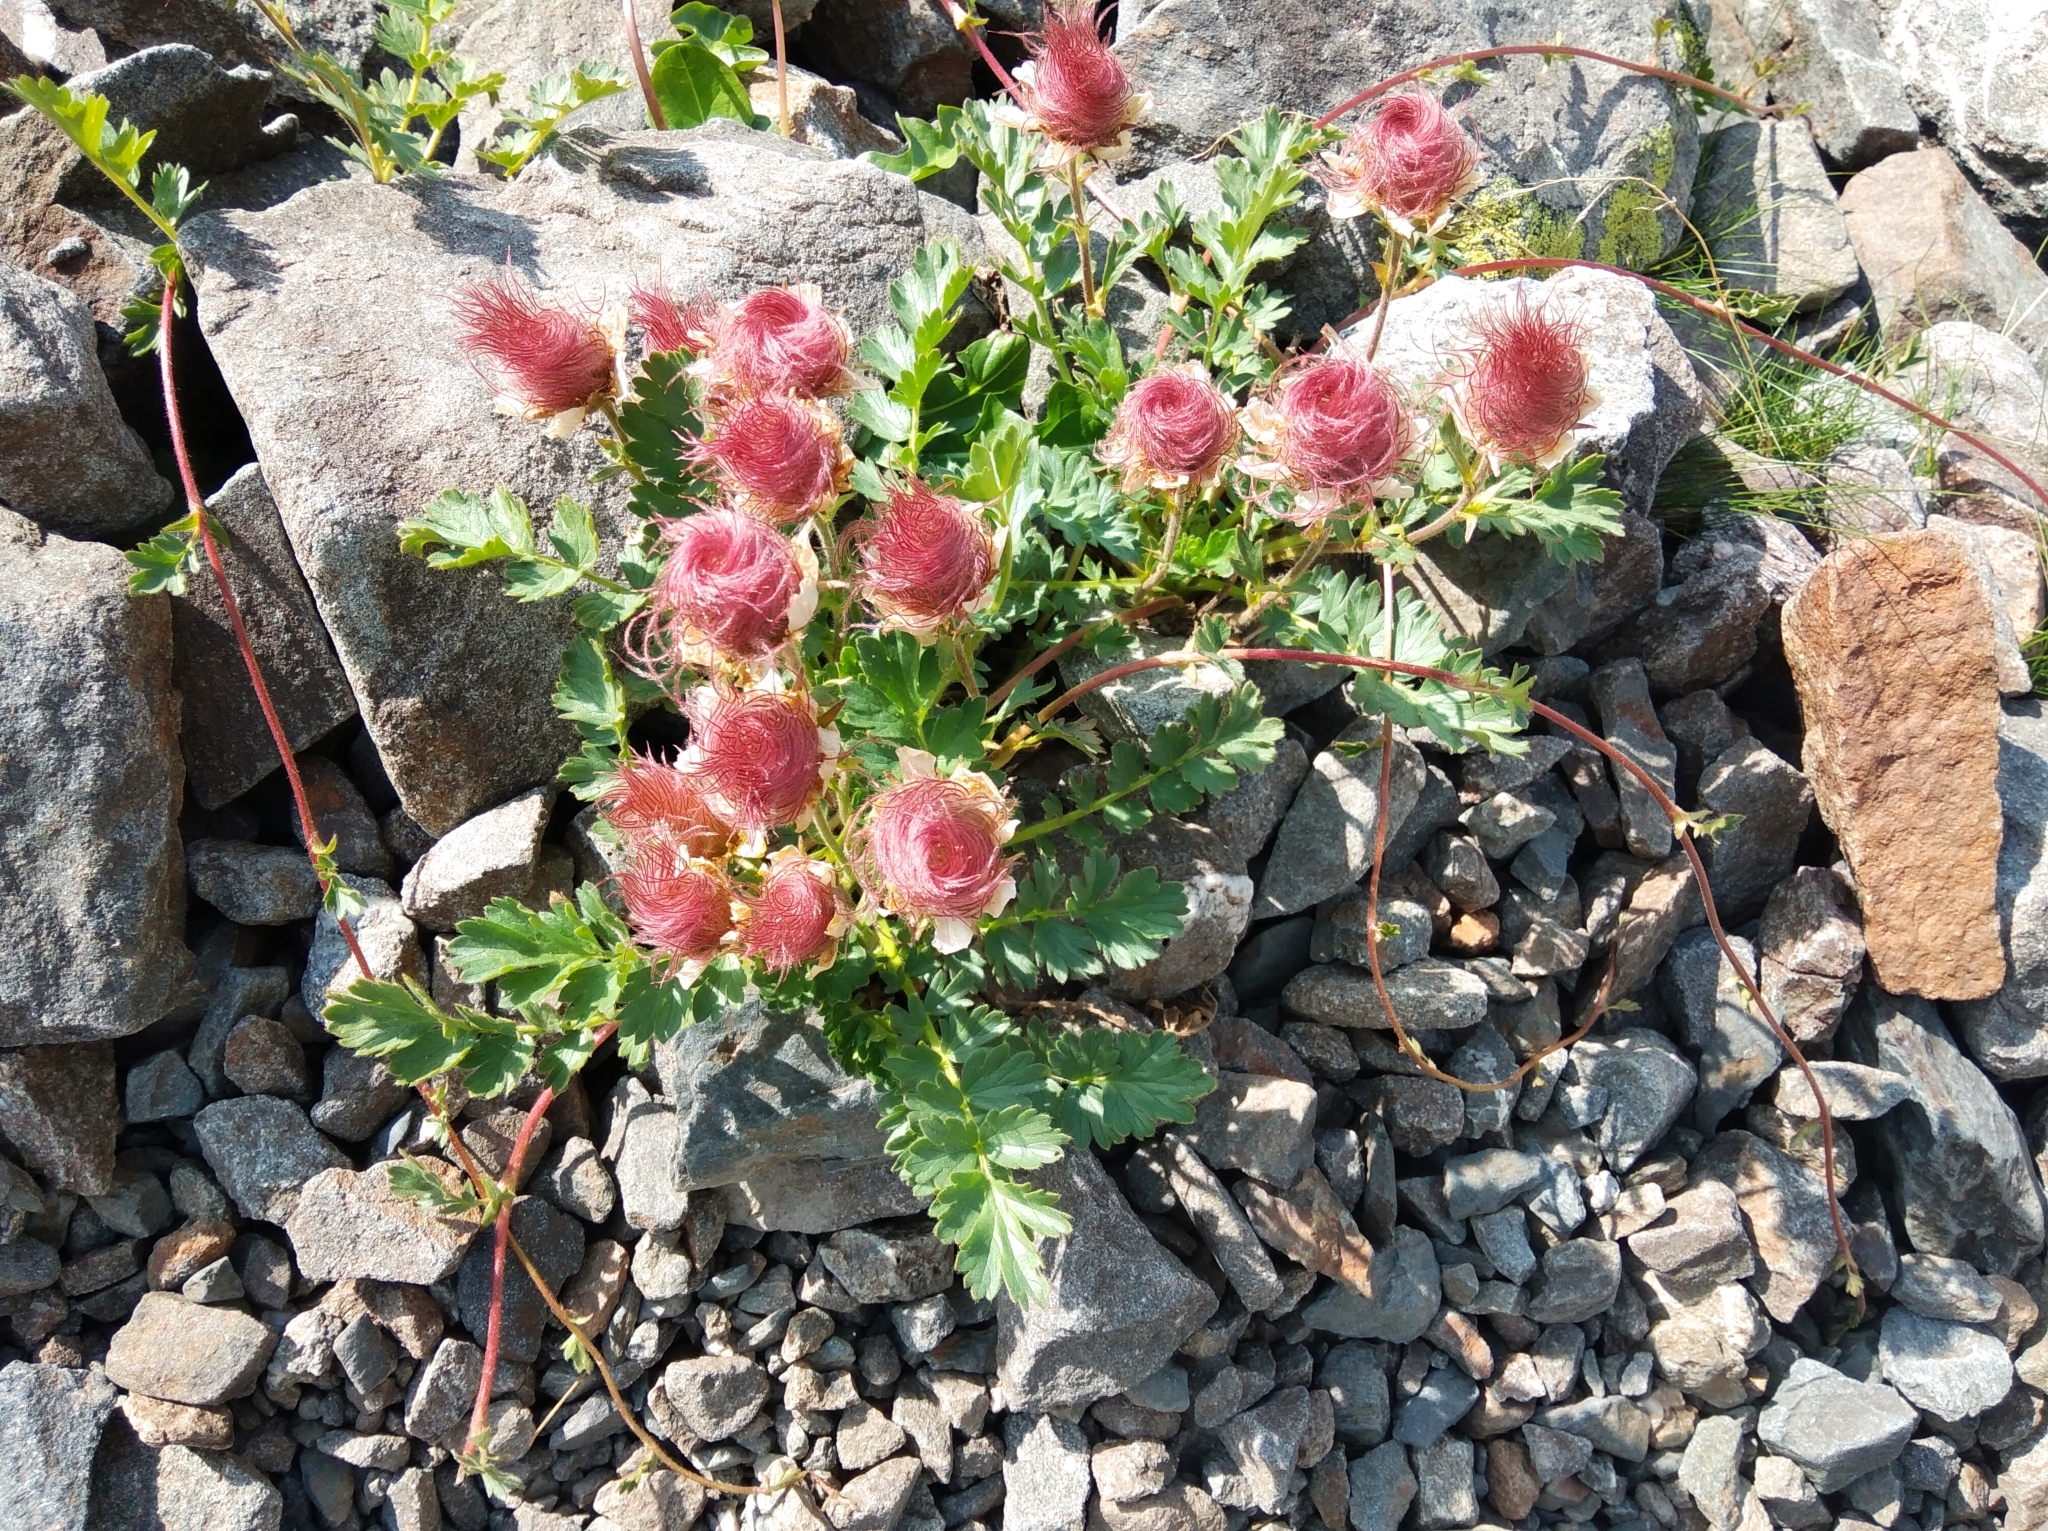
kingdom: Plantae
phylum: Tracheophyta
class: Magnoliopsida
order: Rosales
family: Rosaceae
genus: Geum
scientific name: Geum reptans
